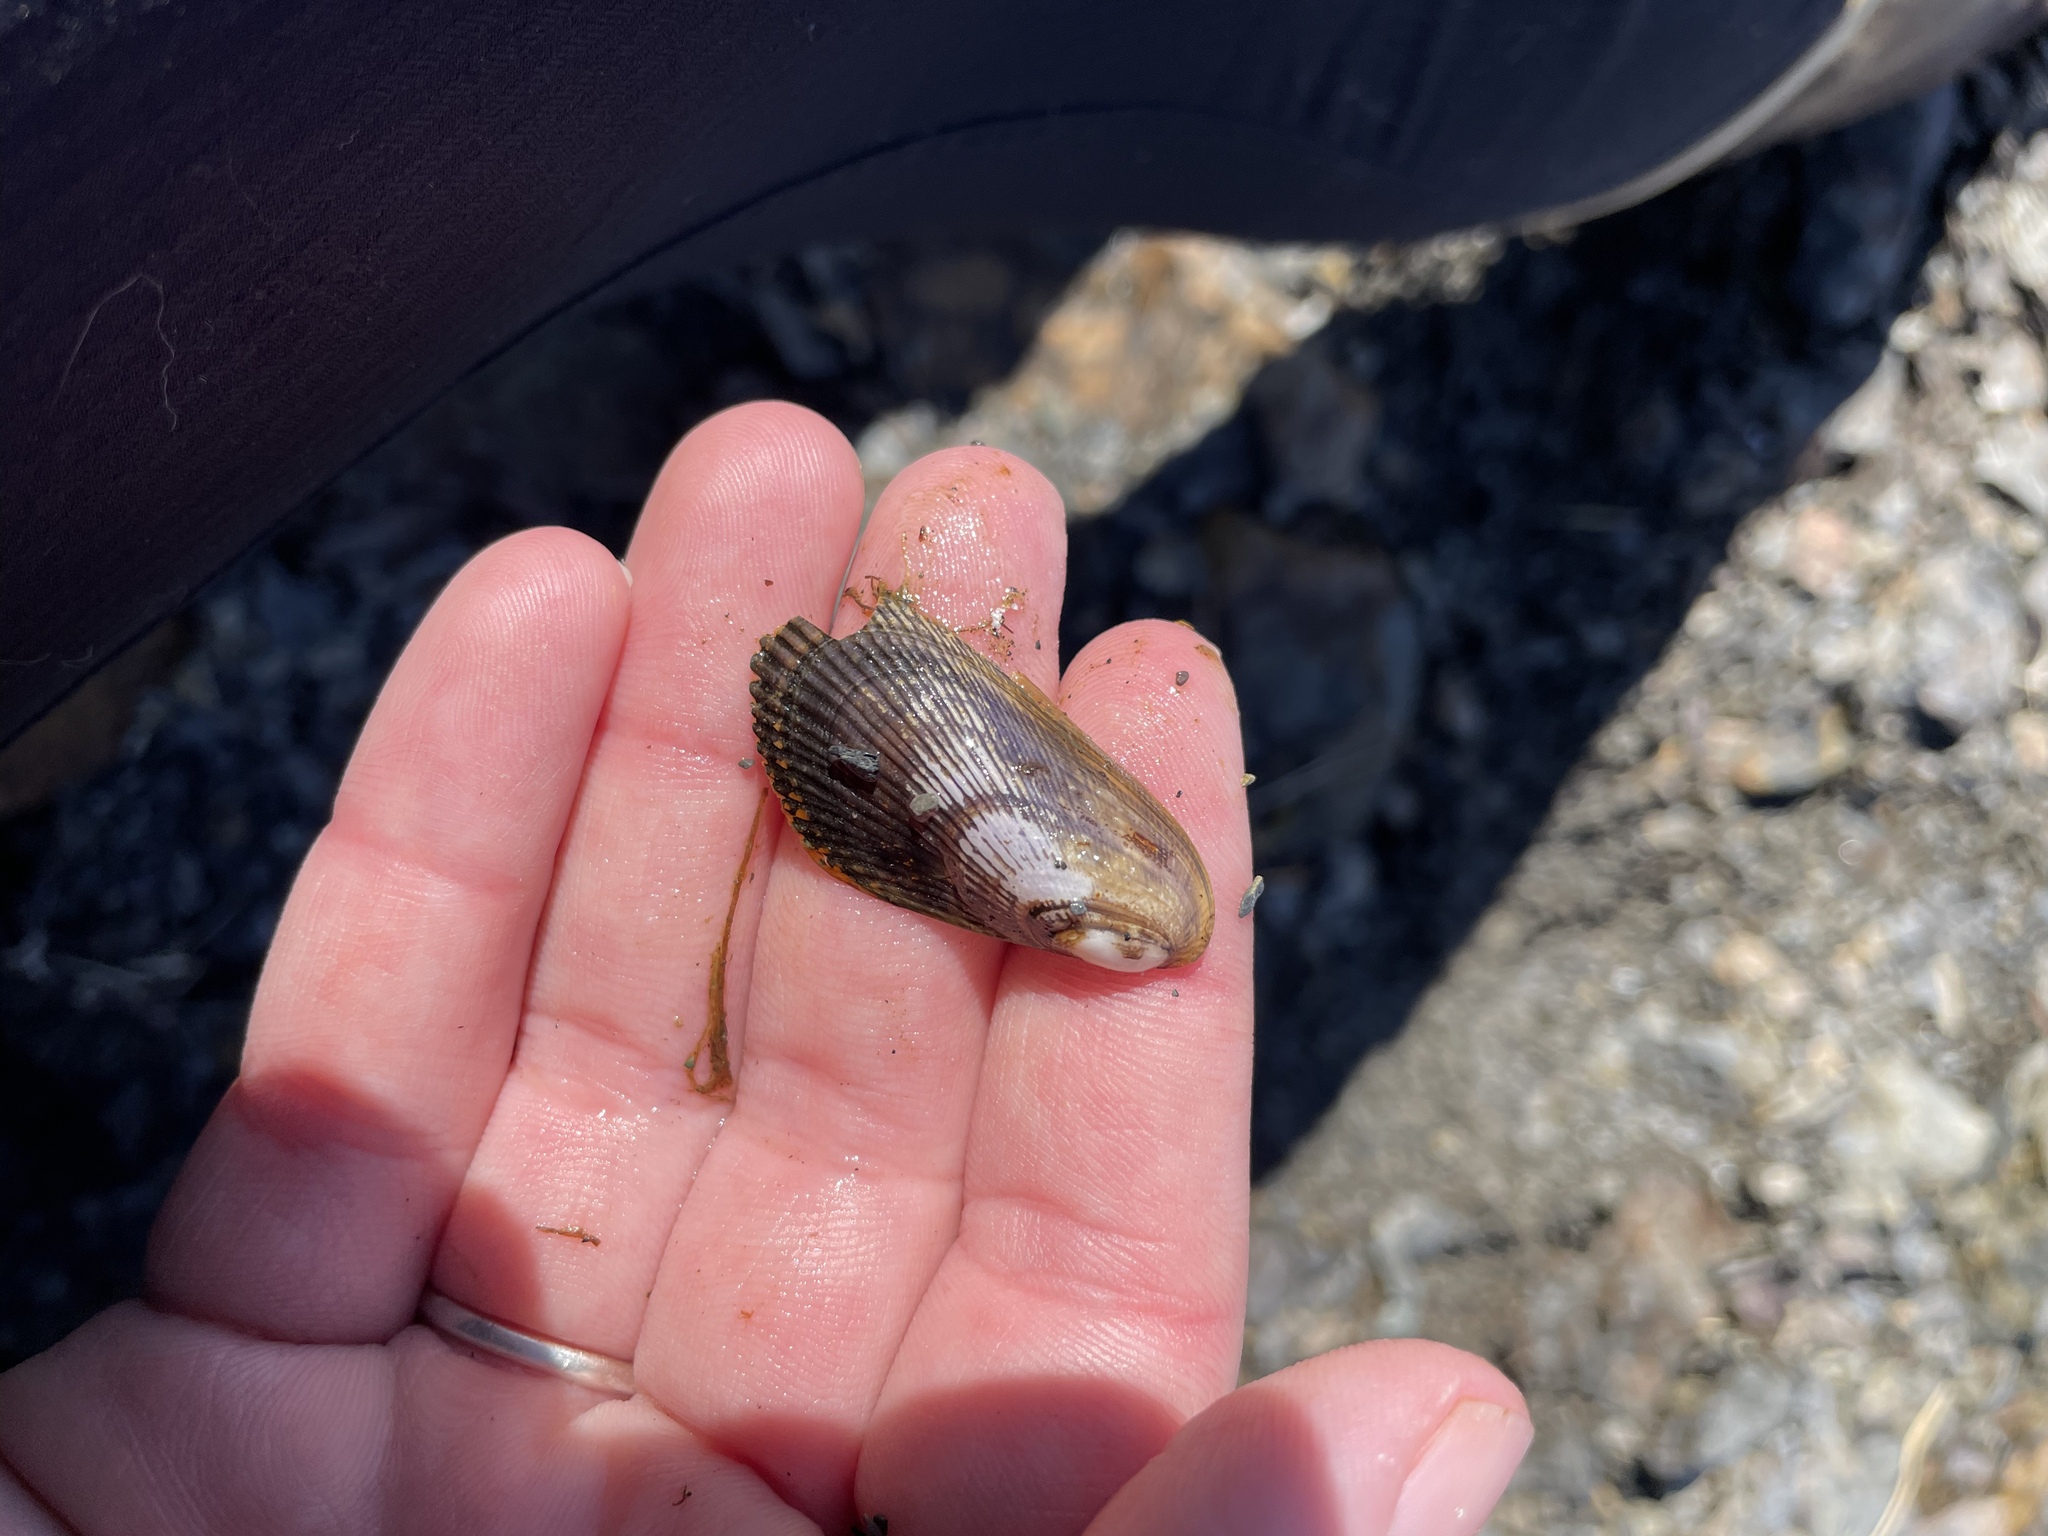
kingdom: Animalia
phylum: Mollusca
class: Bivalvia
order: Mytilida
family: Mytilidae
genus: Geukensia
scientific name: Geukensia demissa
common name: Ribbed mussel
